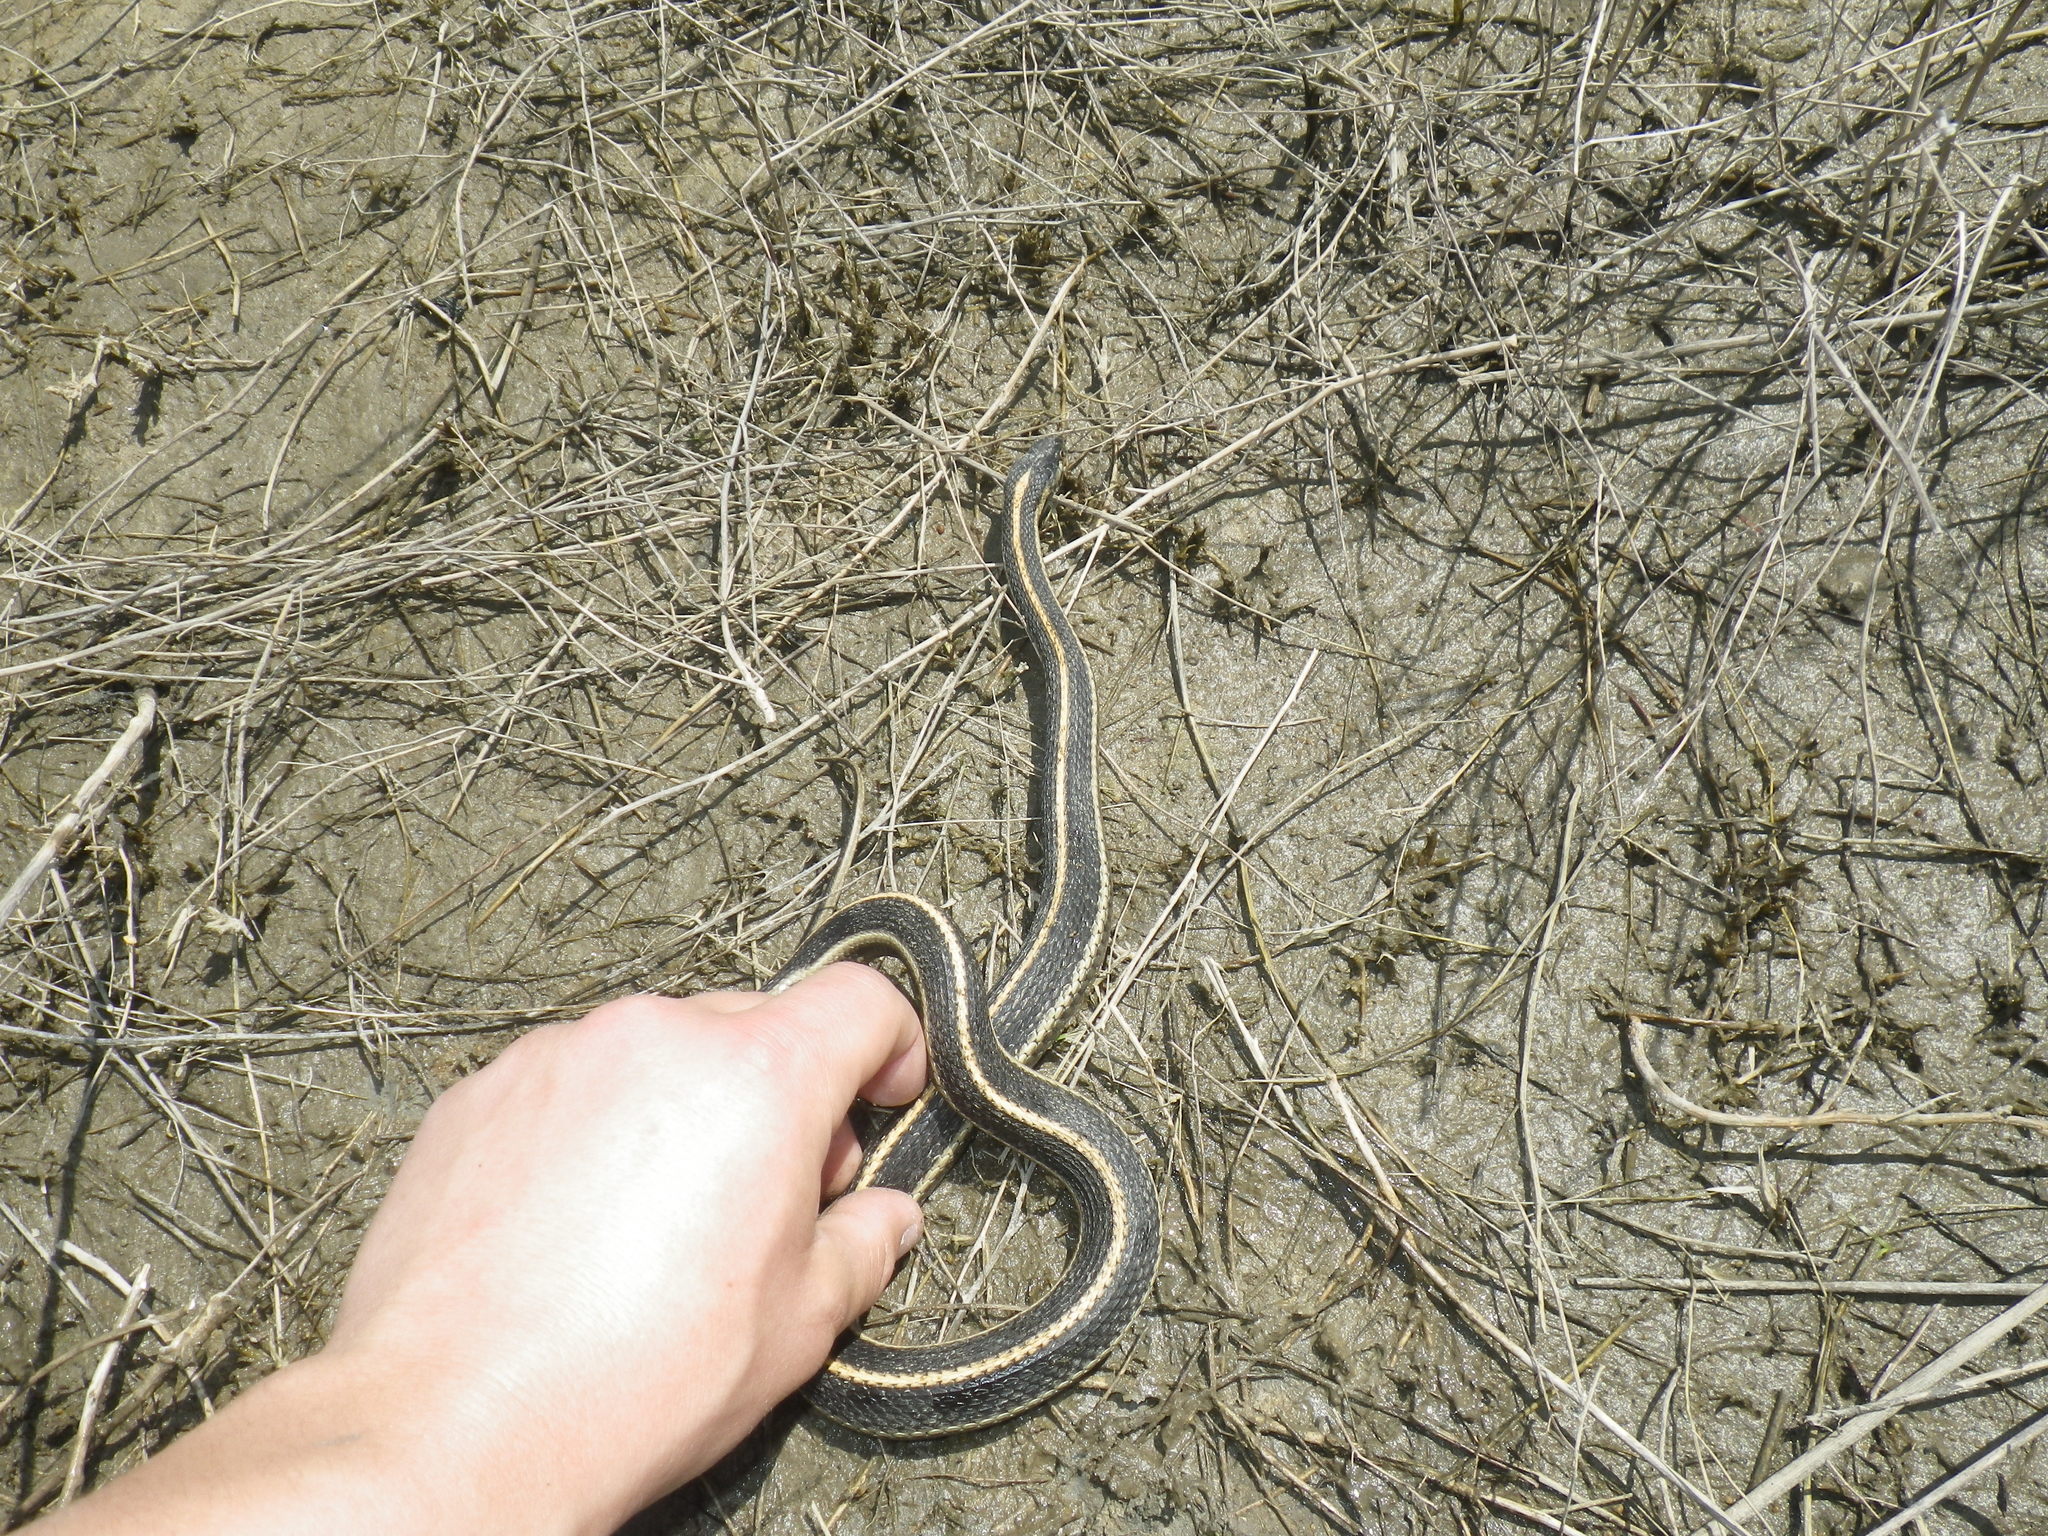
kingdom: Animalia
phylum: Chordata
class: Squamata
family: Colubridae
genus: Thamnophis
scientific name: Thamnophis elegans
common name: Western terrestrial garter snake
